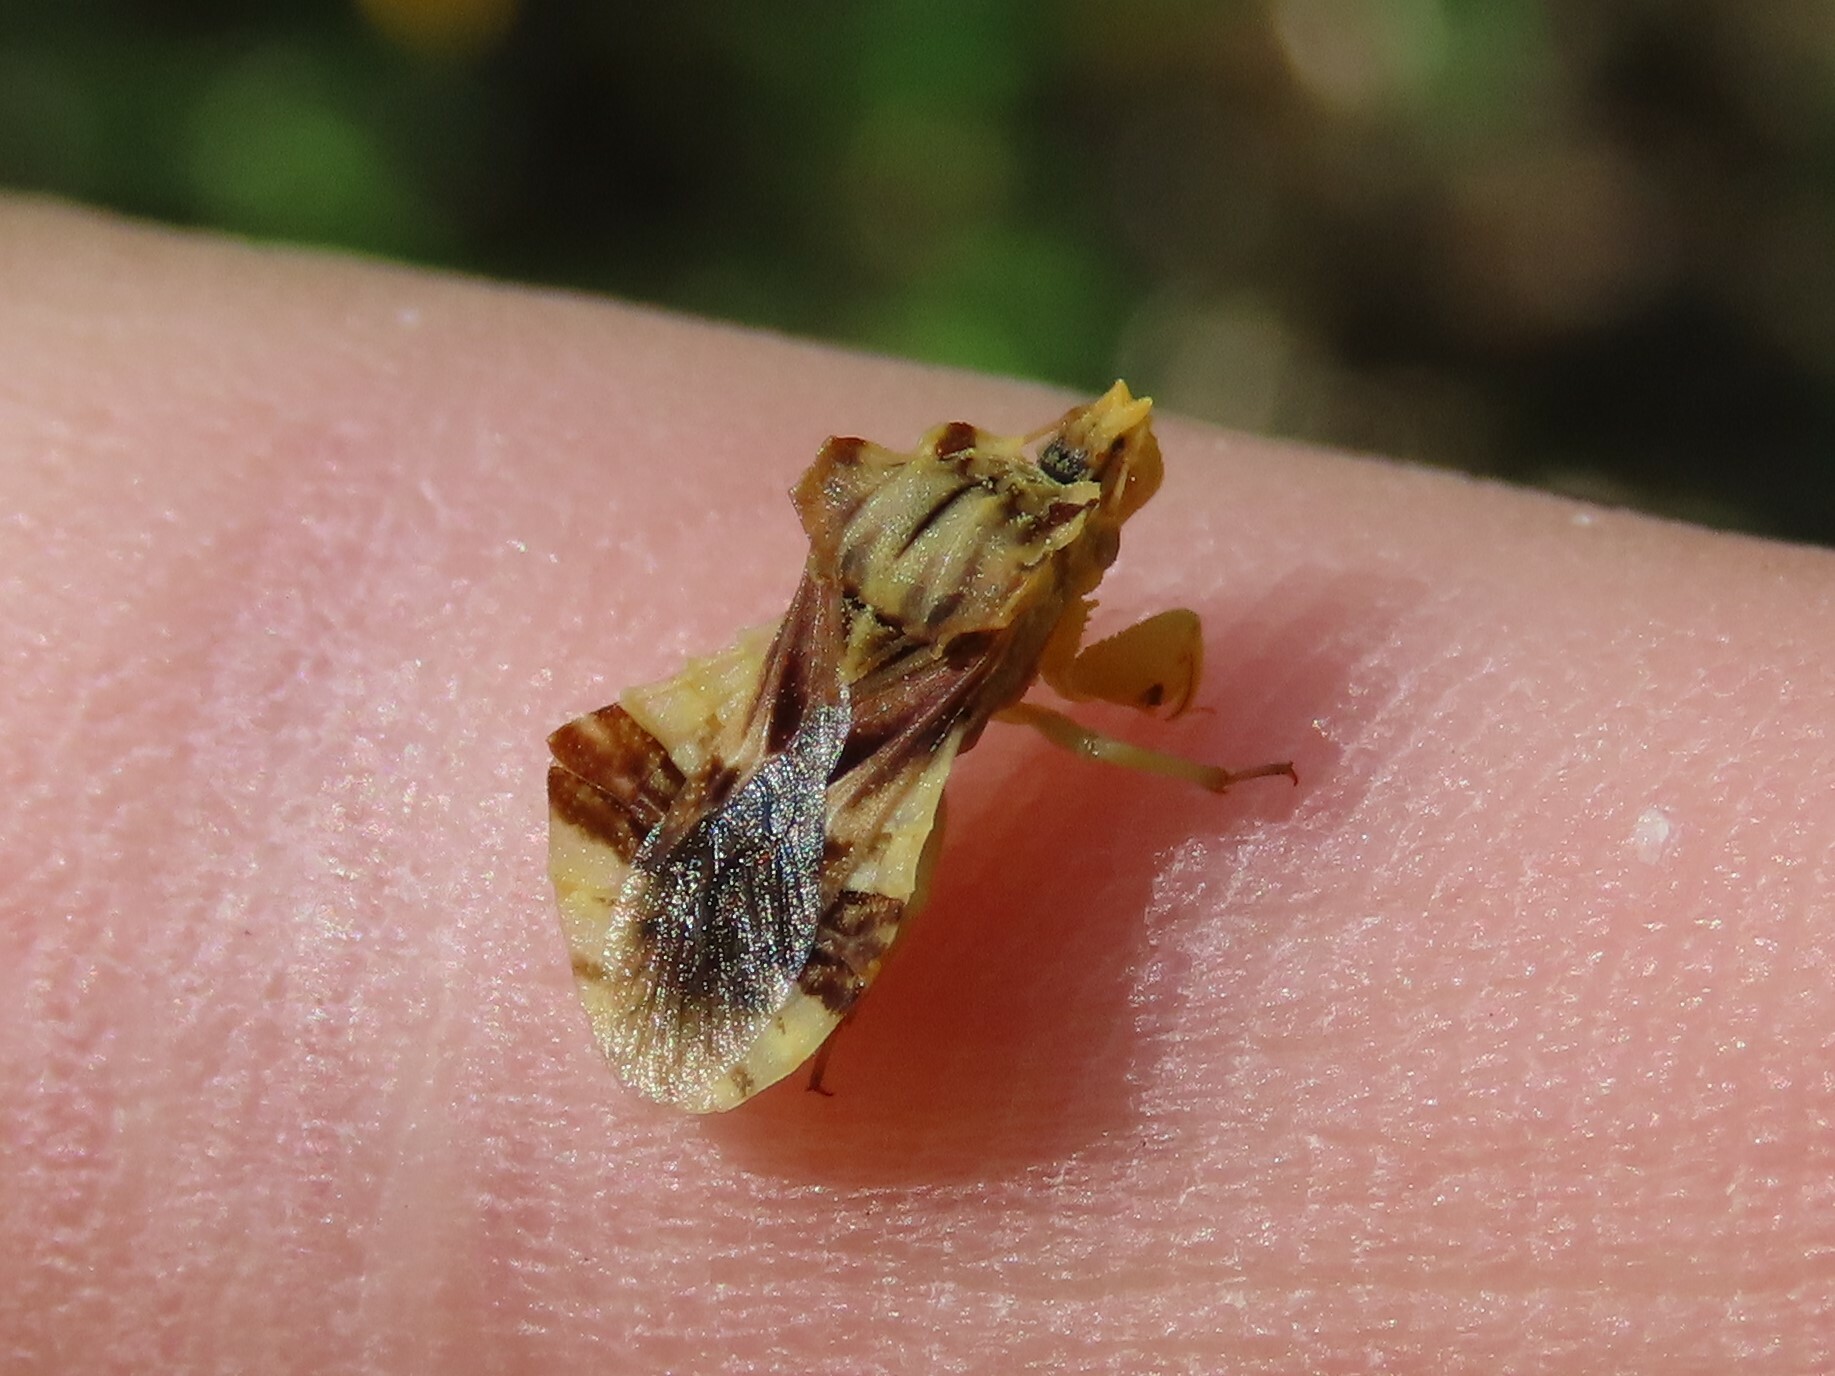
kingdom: Animalia
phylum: Arthropoda
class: Insecta
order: Hemiptera
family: Reduviidae
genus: Phymata
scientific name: Phymata fasciata
